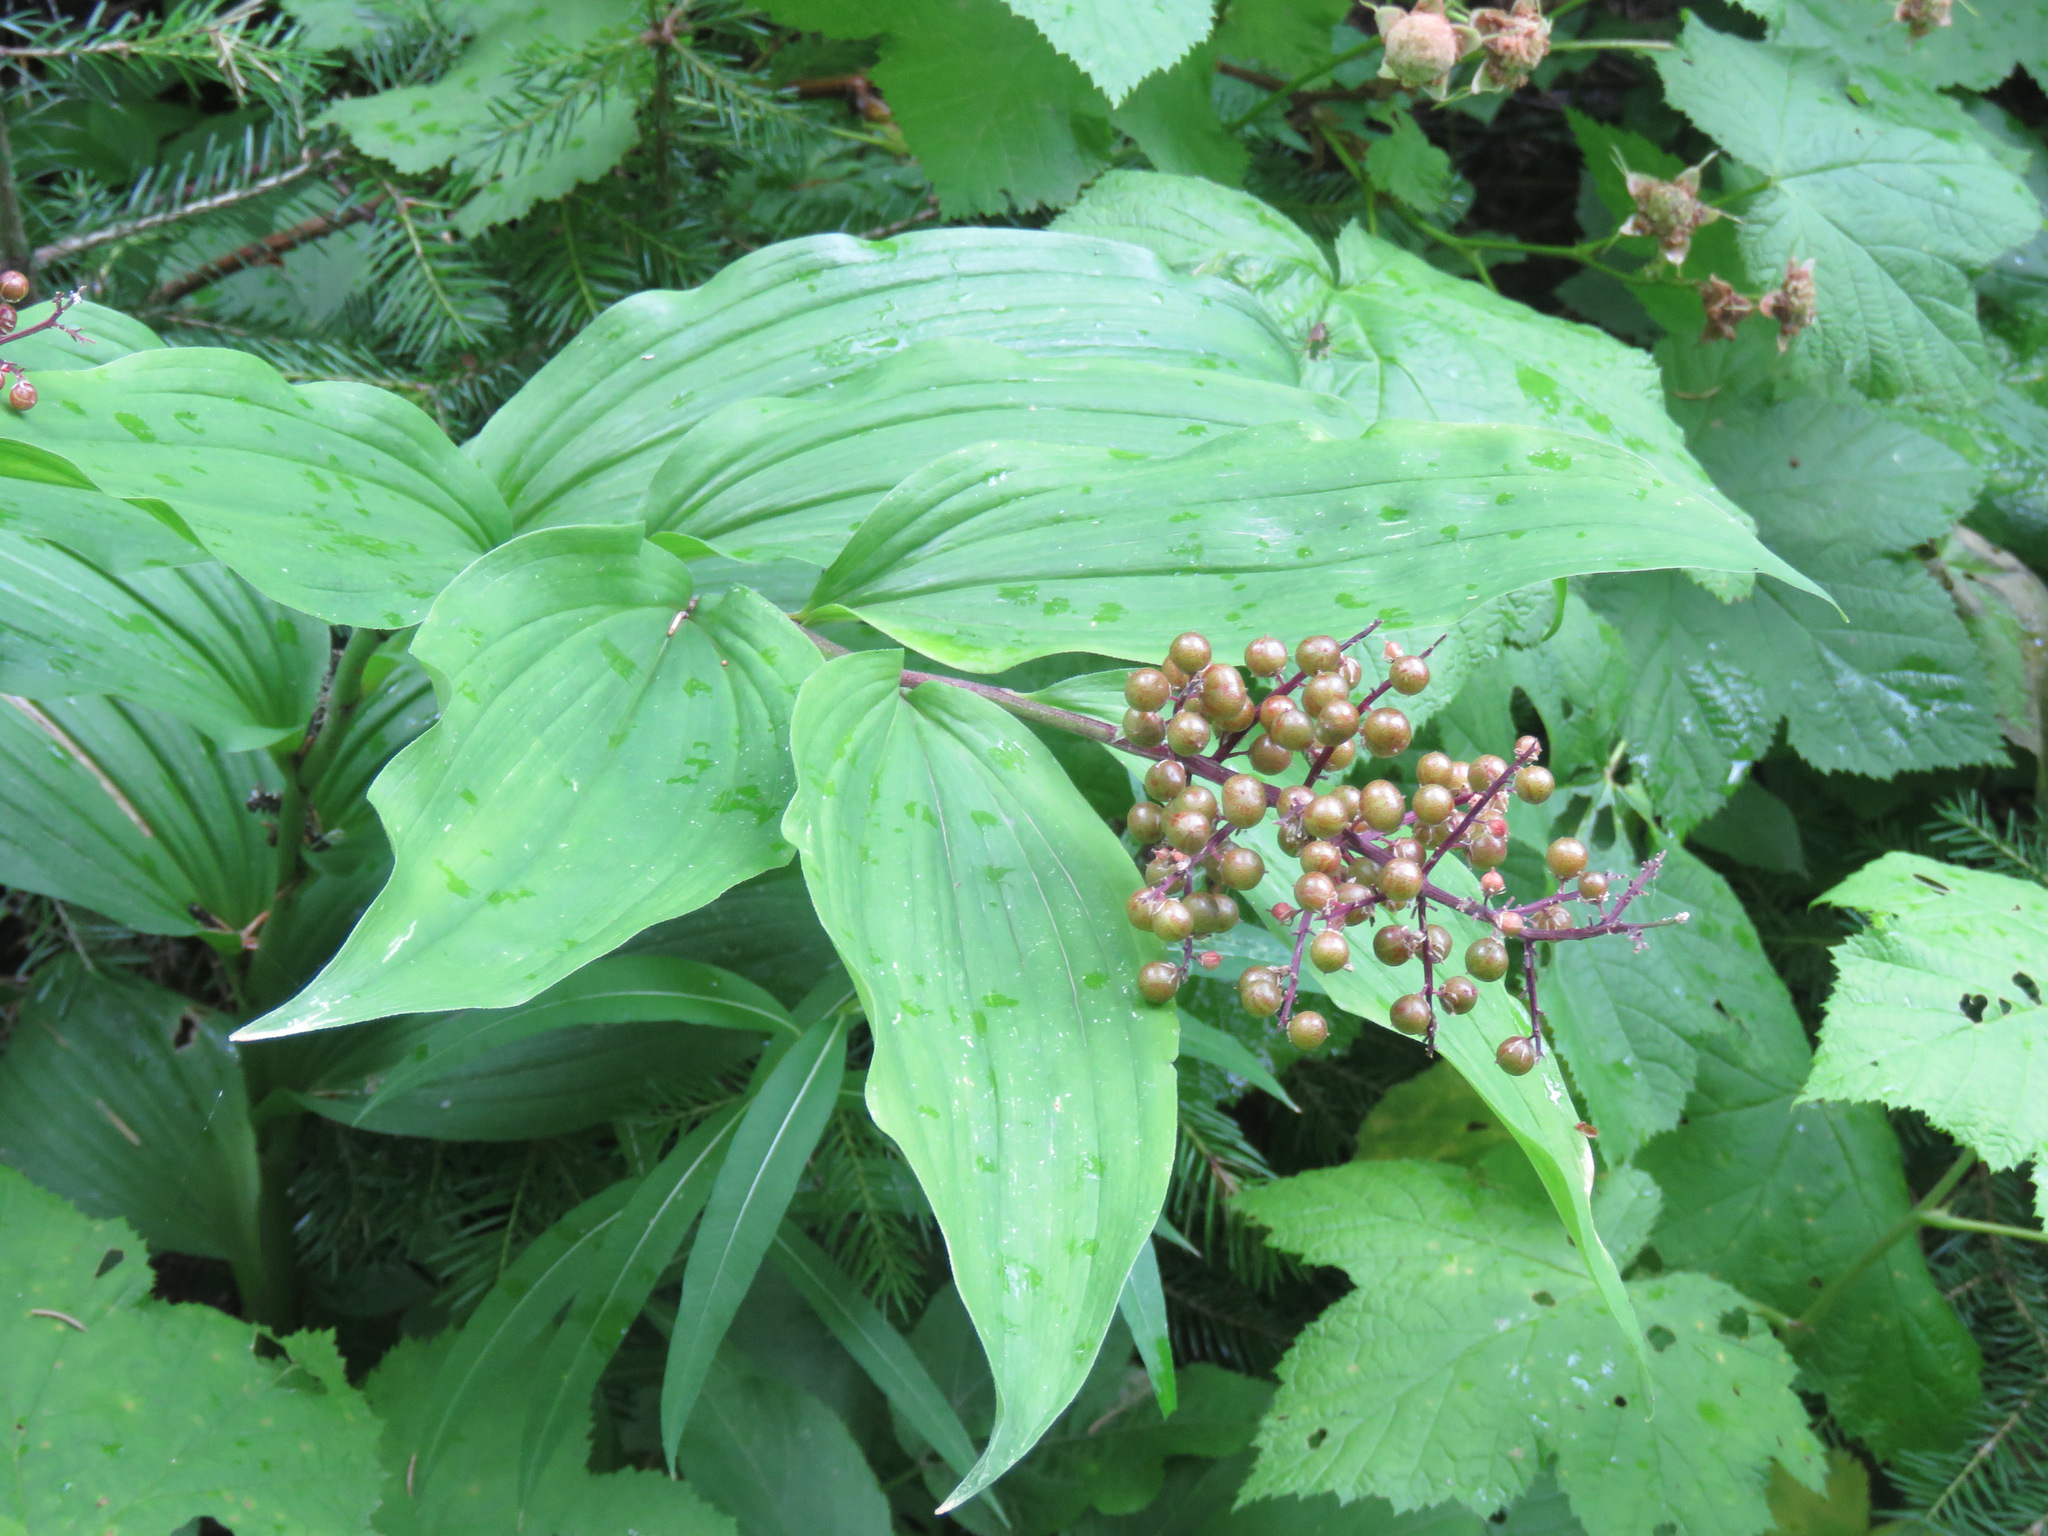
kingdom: Plantae
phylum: Tracheophyta
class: Liliopsida
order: Asparagales
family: Asparagaceae
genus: Maianthemum
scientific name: Maianthemum racemosum
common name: False spikenard
